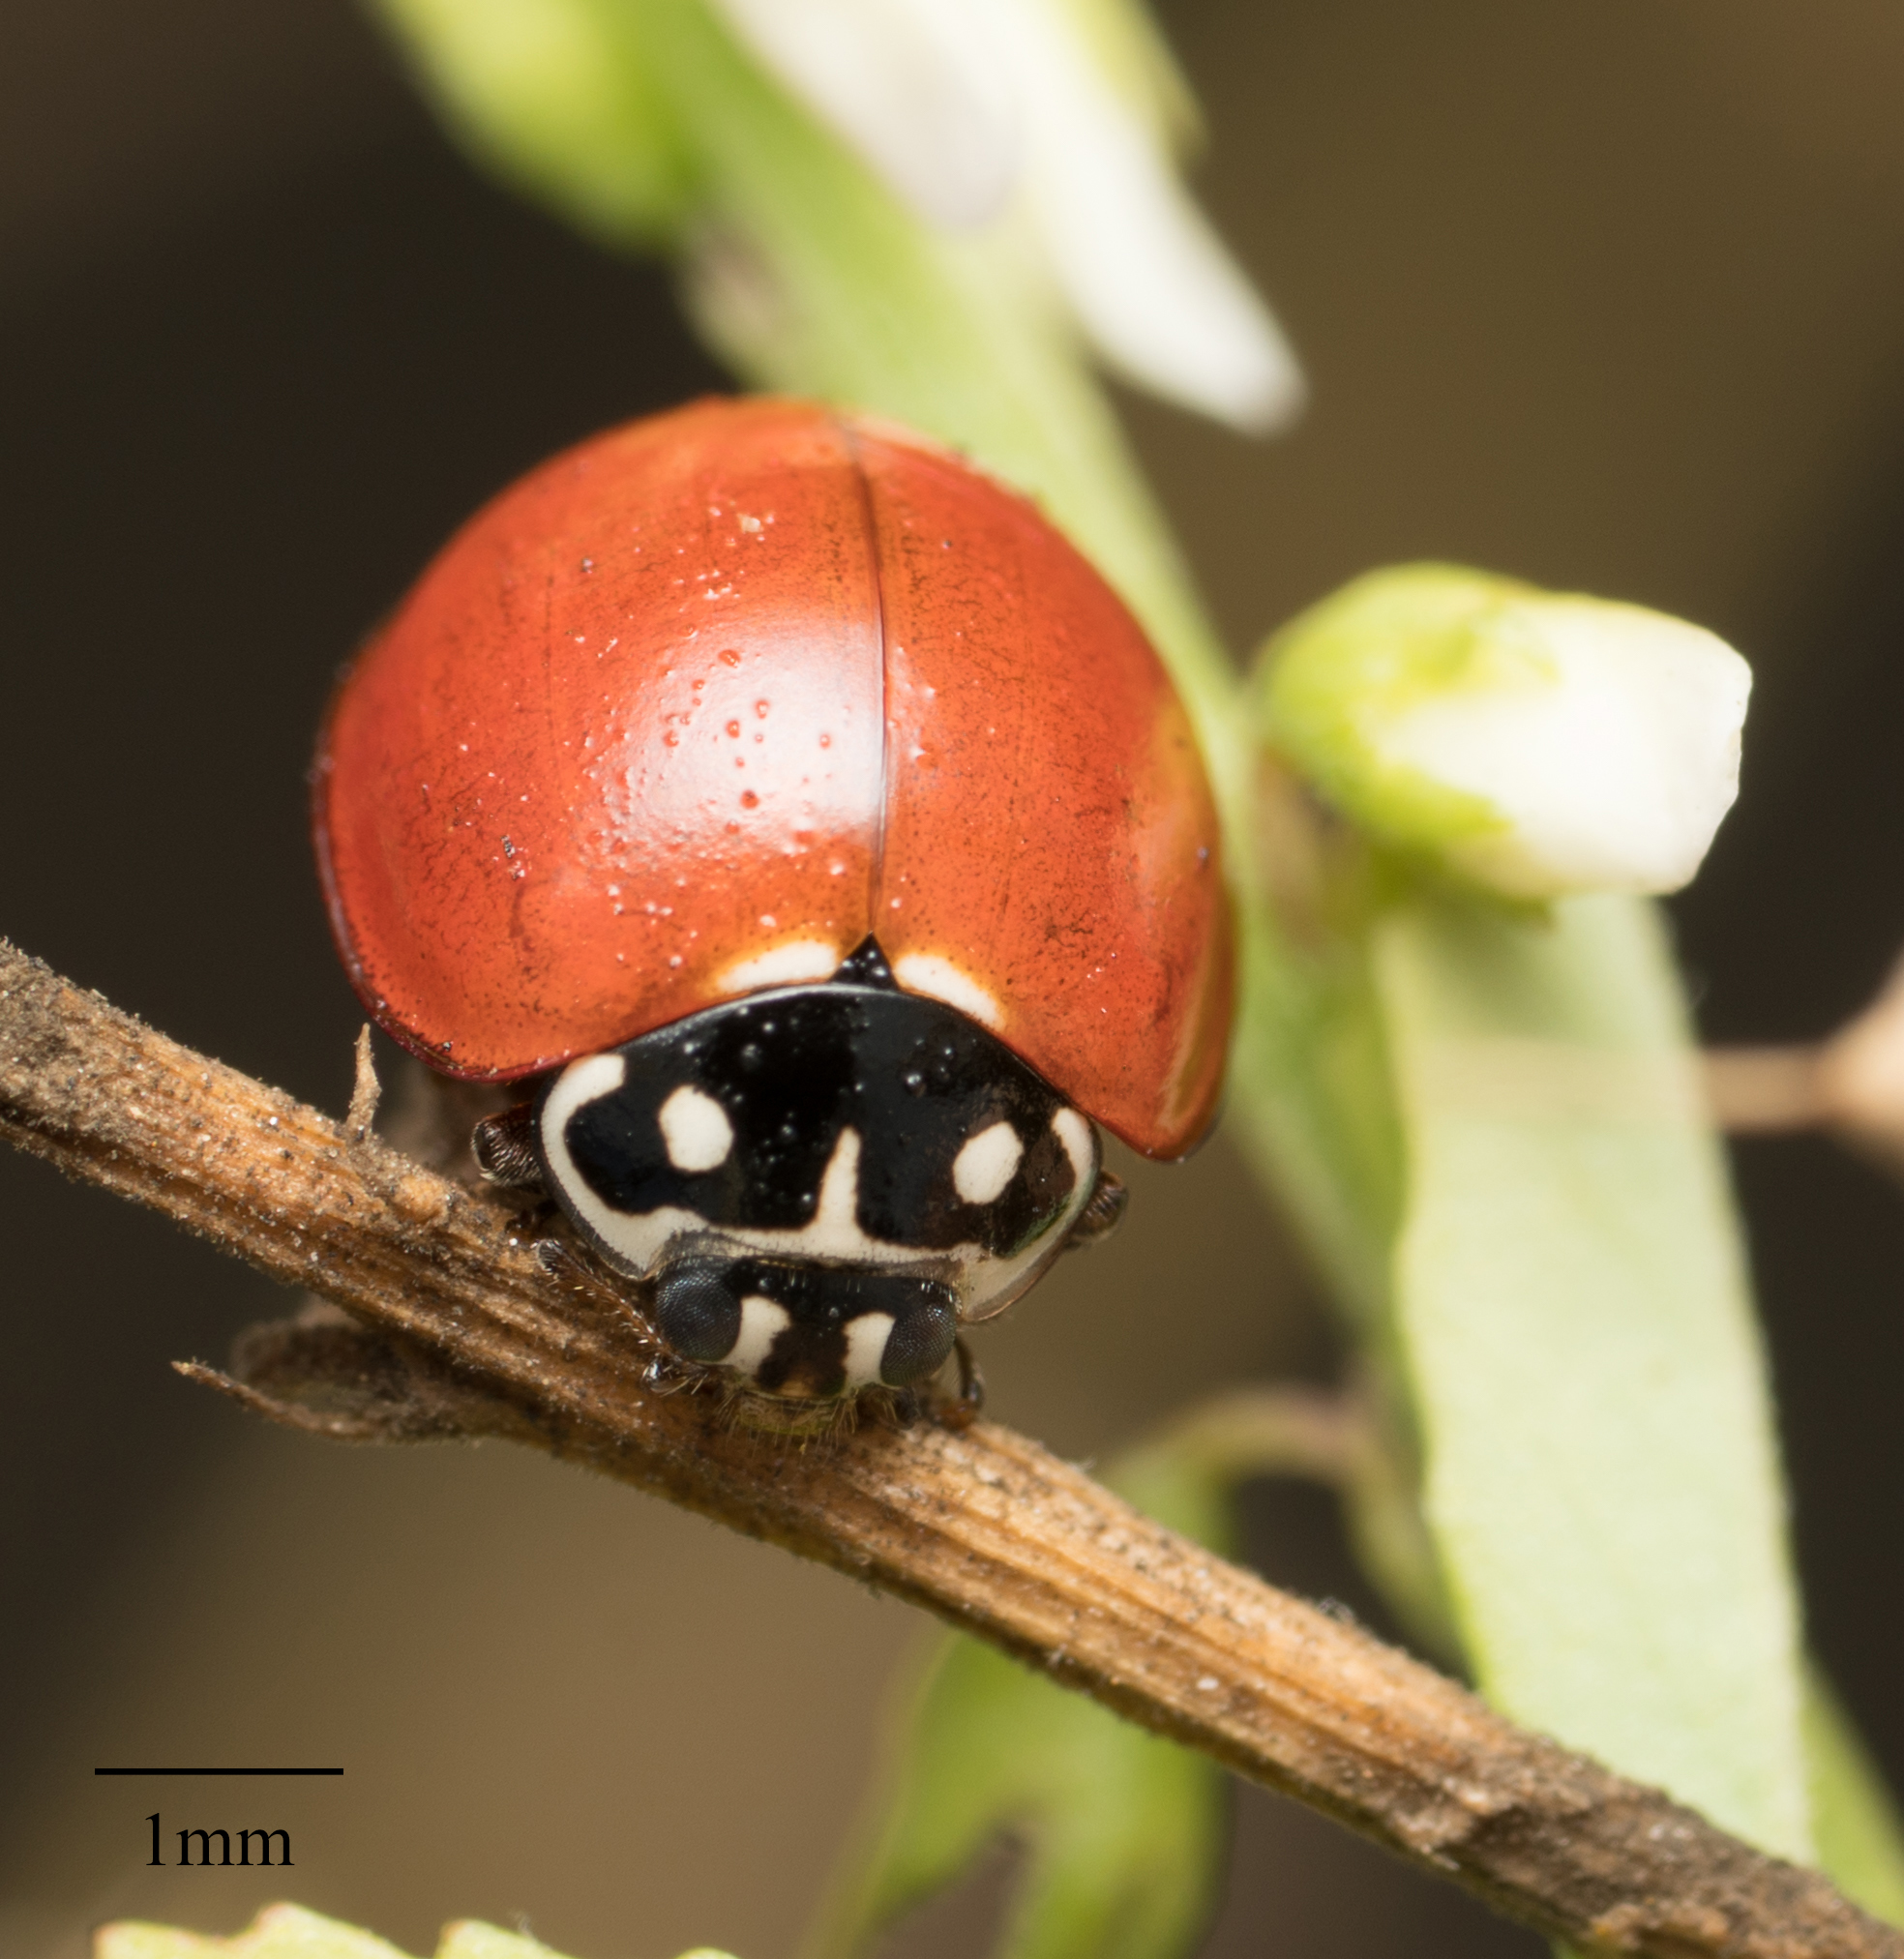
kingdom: Animalia
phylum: Arthropoda
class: Insecta
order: Coleoptera
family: Coccinellidae
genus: Cycloneda
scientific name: Cycloneda sanguinea
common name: Ladybird beetle
